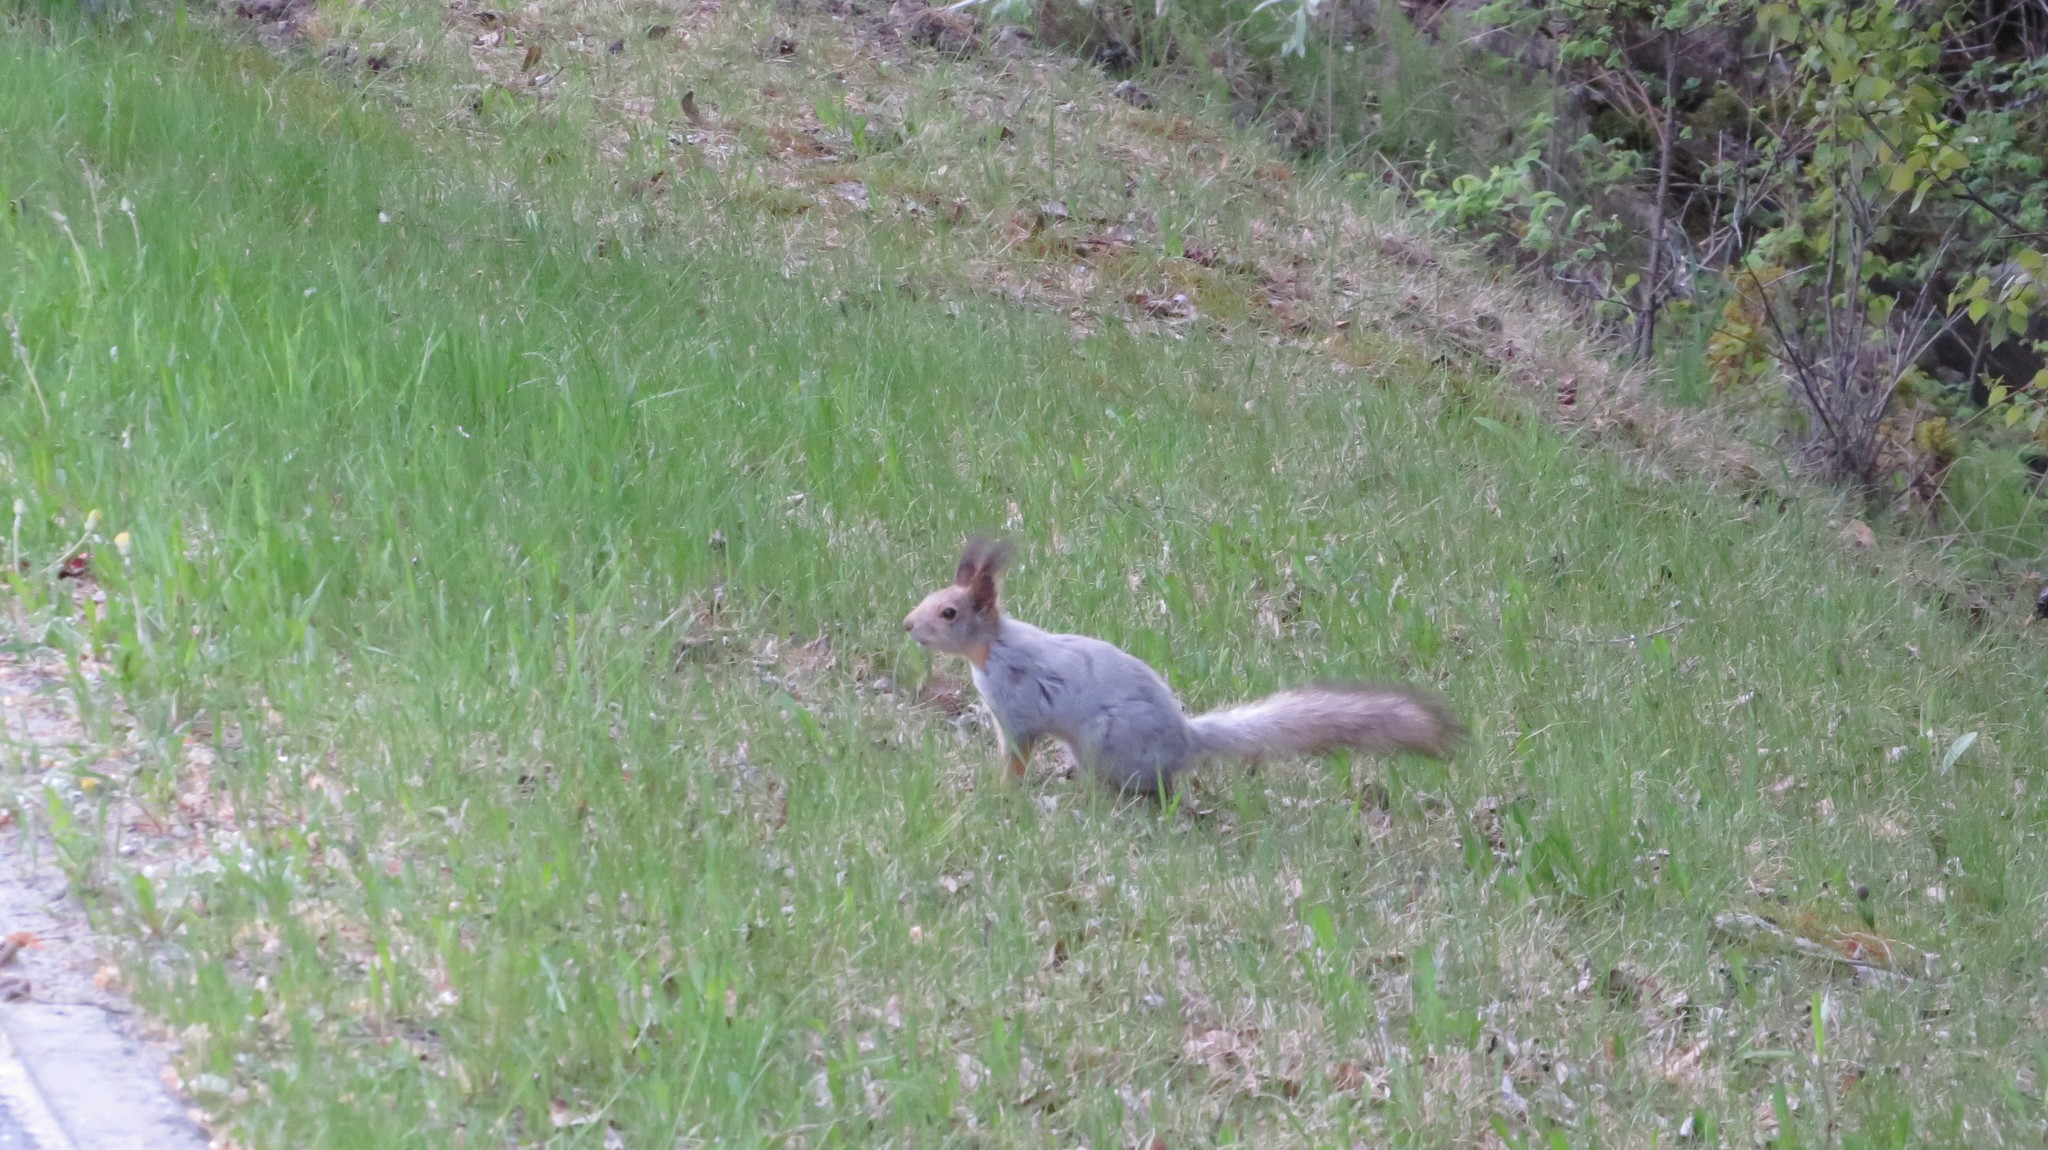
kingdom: Animalia
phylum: Chordata
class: Mammalia
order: Rodentia
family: Sciuridae
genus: Sciurus
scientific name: Sciurus vulgaris
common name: Eurasian red squirrel
